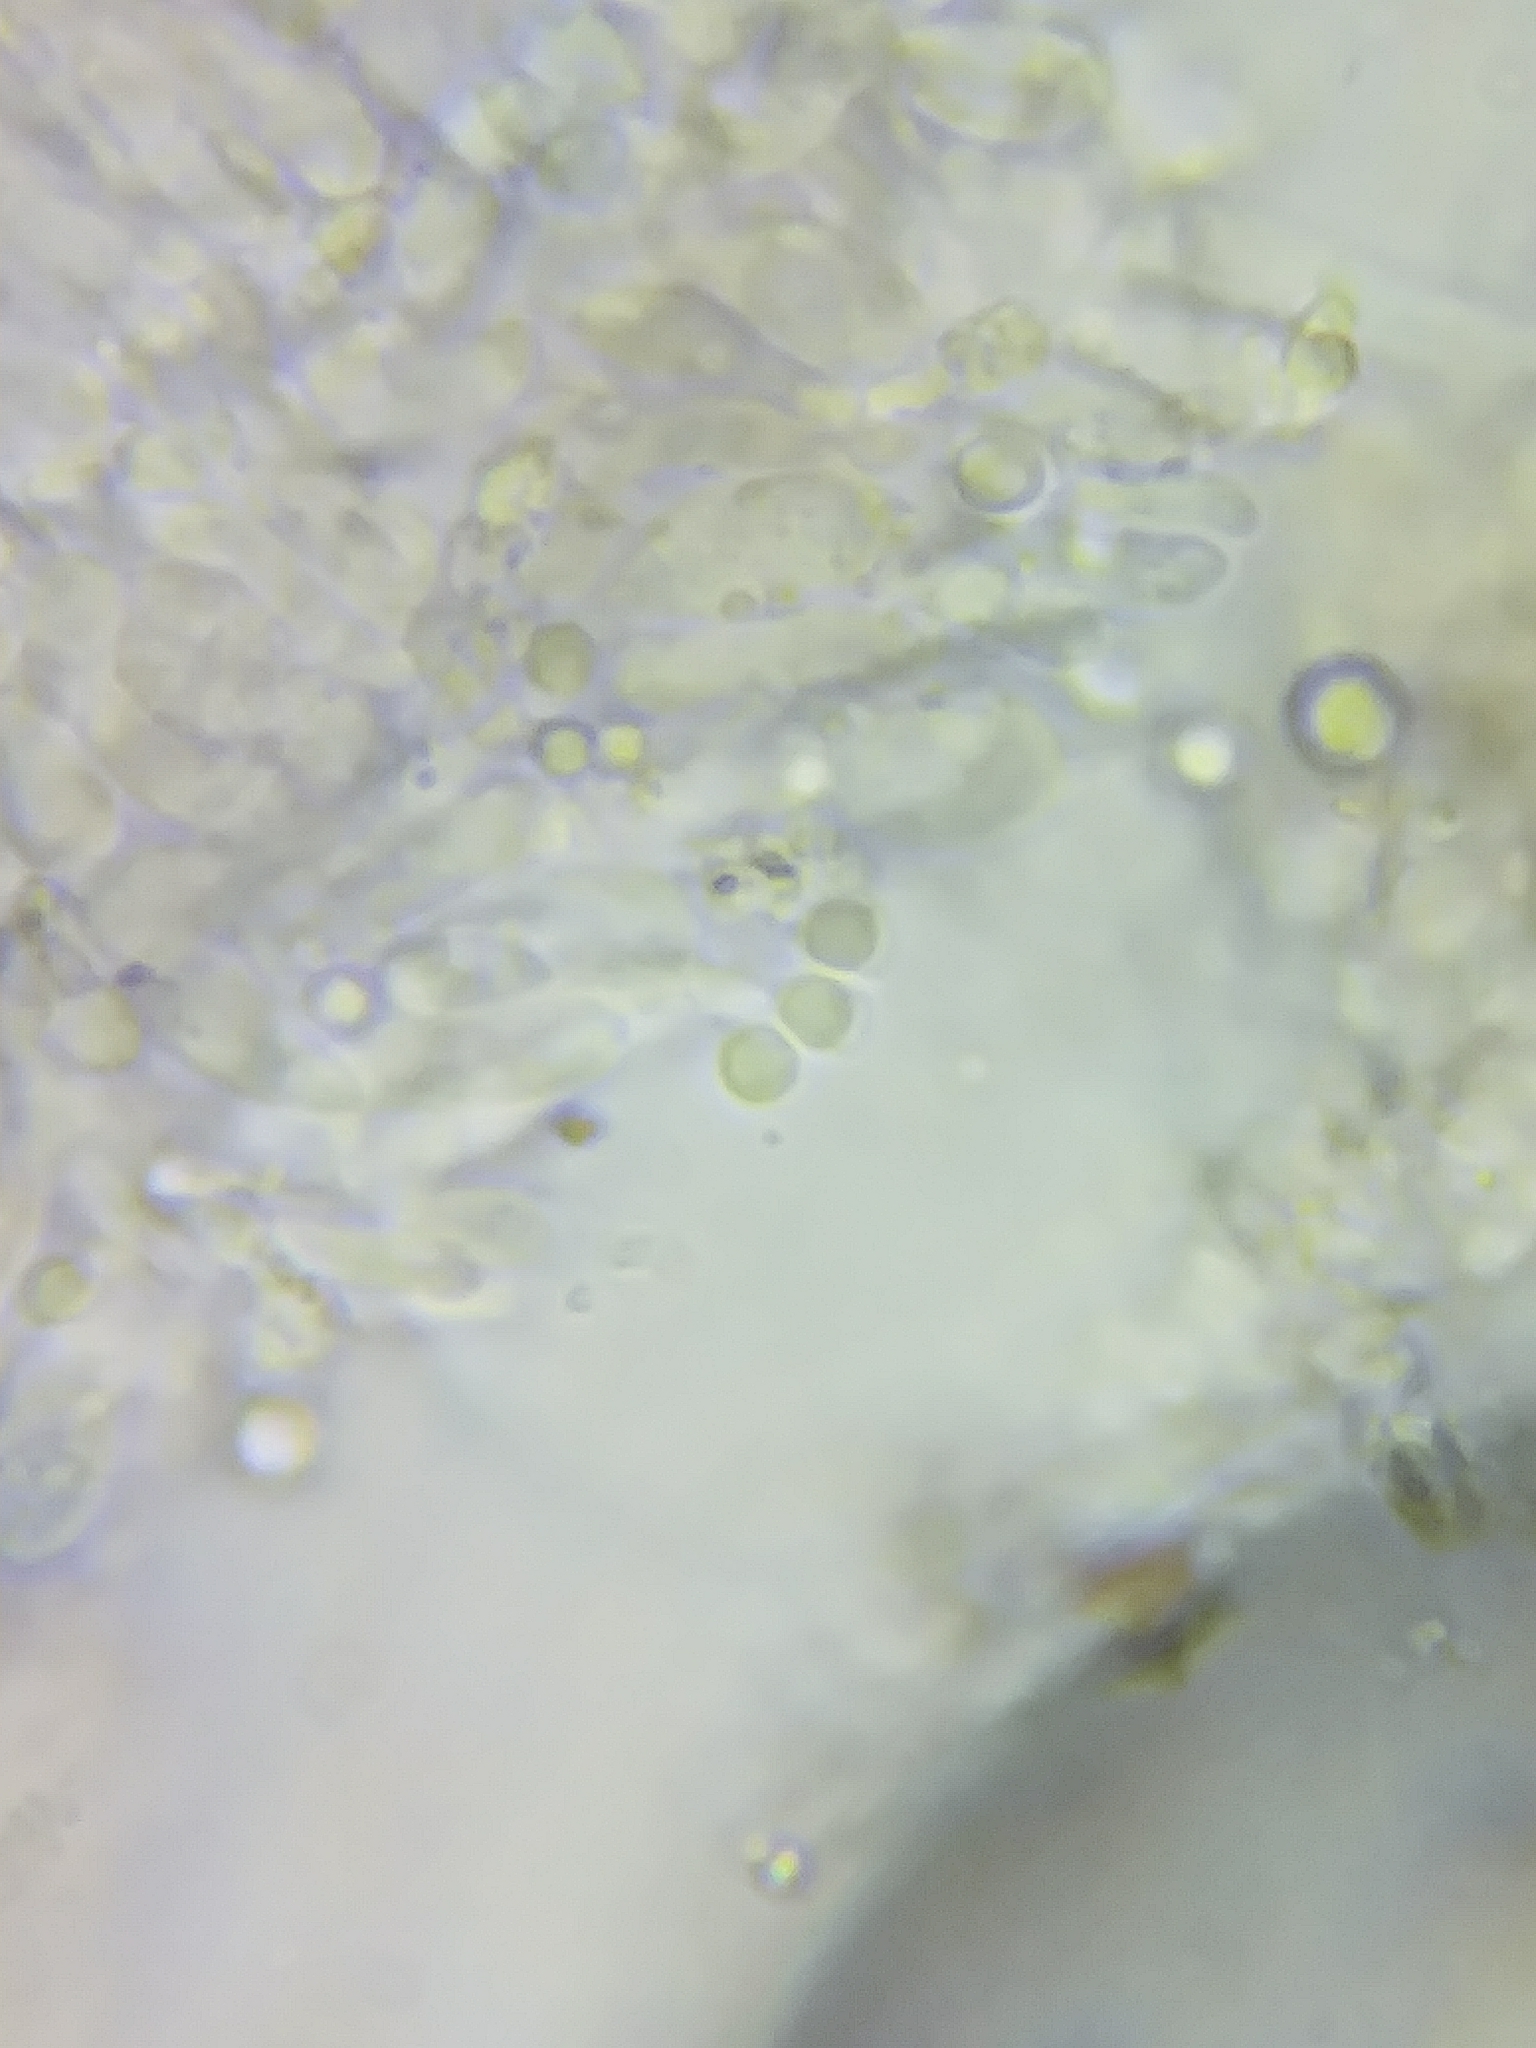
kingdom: Fungi
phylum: Basidiomycota
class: Agaricomycetes
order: Polyporales
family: Incrustoporiaceae
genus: Tyromyces
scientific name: Tyromyces galactinus
